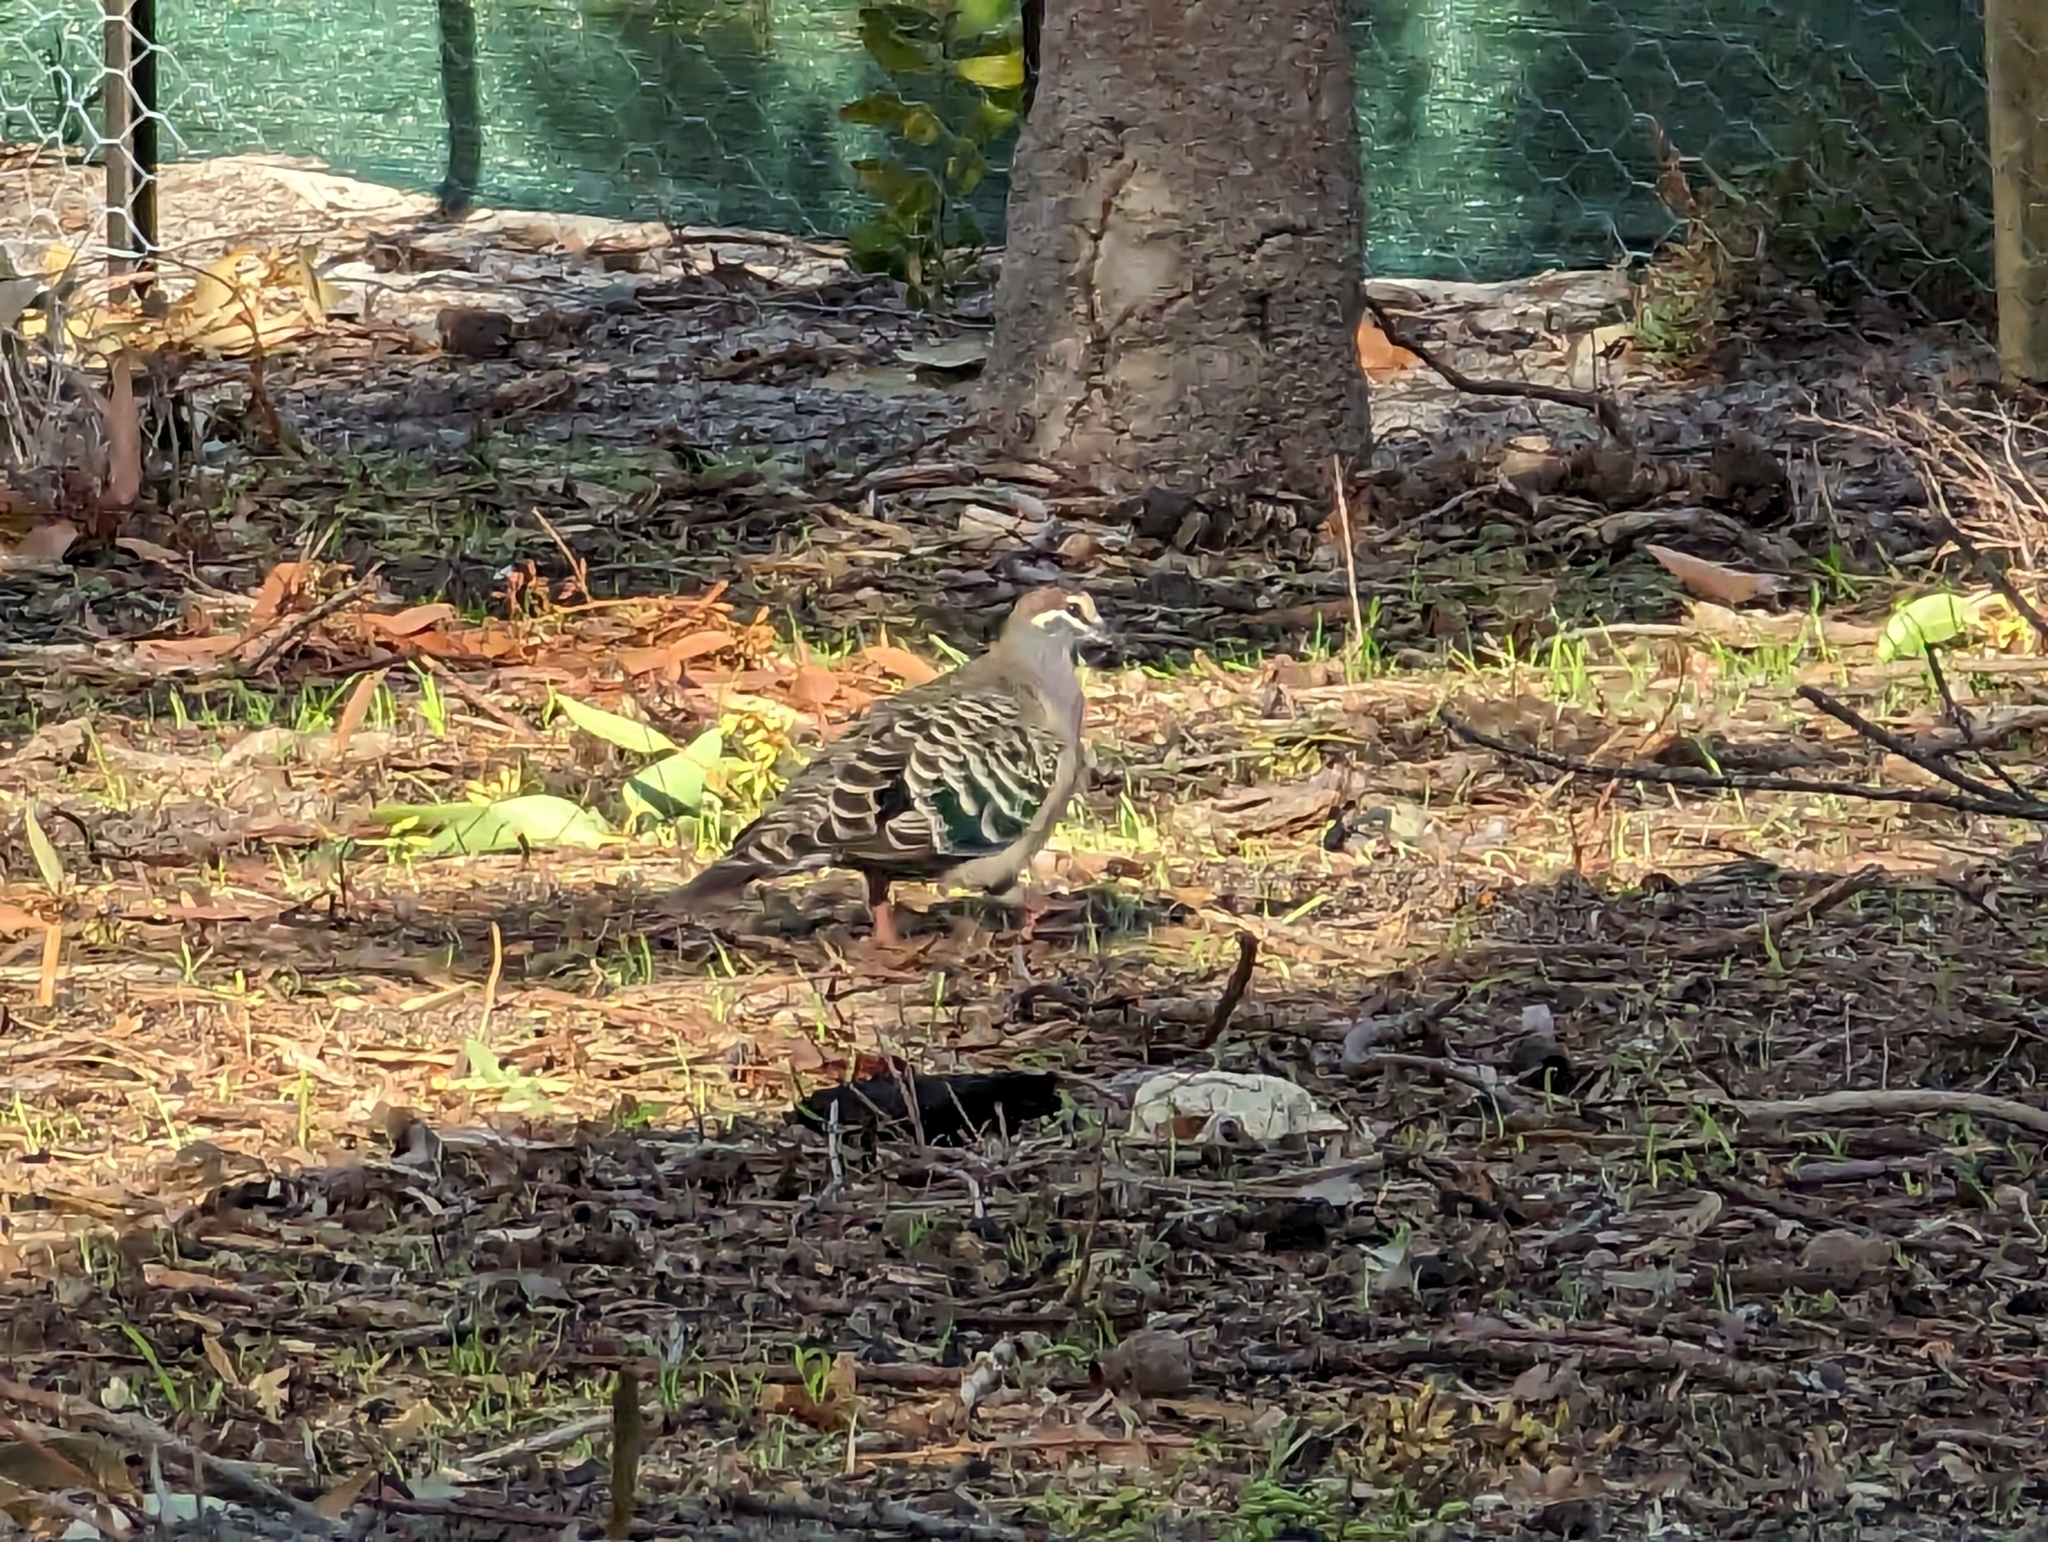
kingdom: Animalia
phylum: Chordata
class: Aves
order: Columbiformes
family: Columbidae
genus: Phaps
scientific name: Phaps chalcoptera
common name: Common bronzewing
